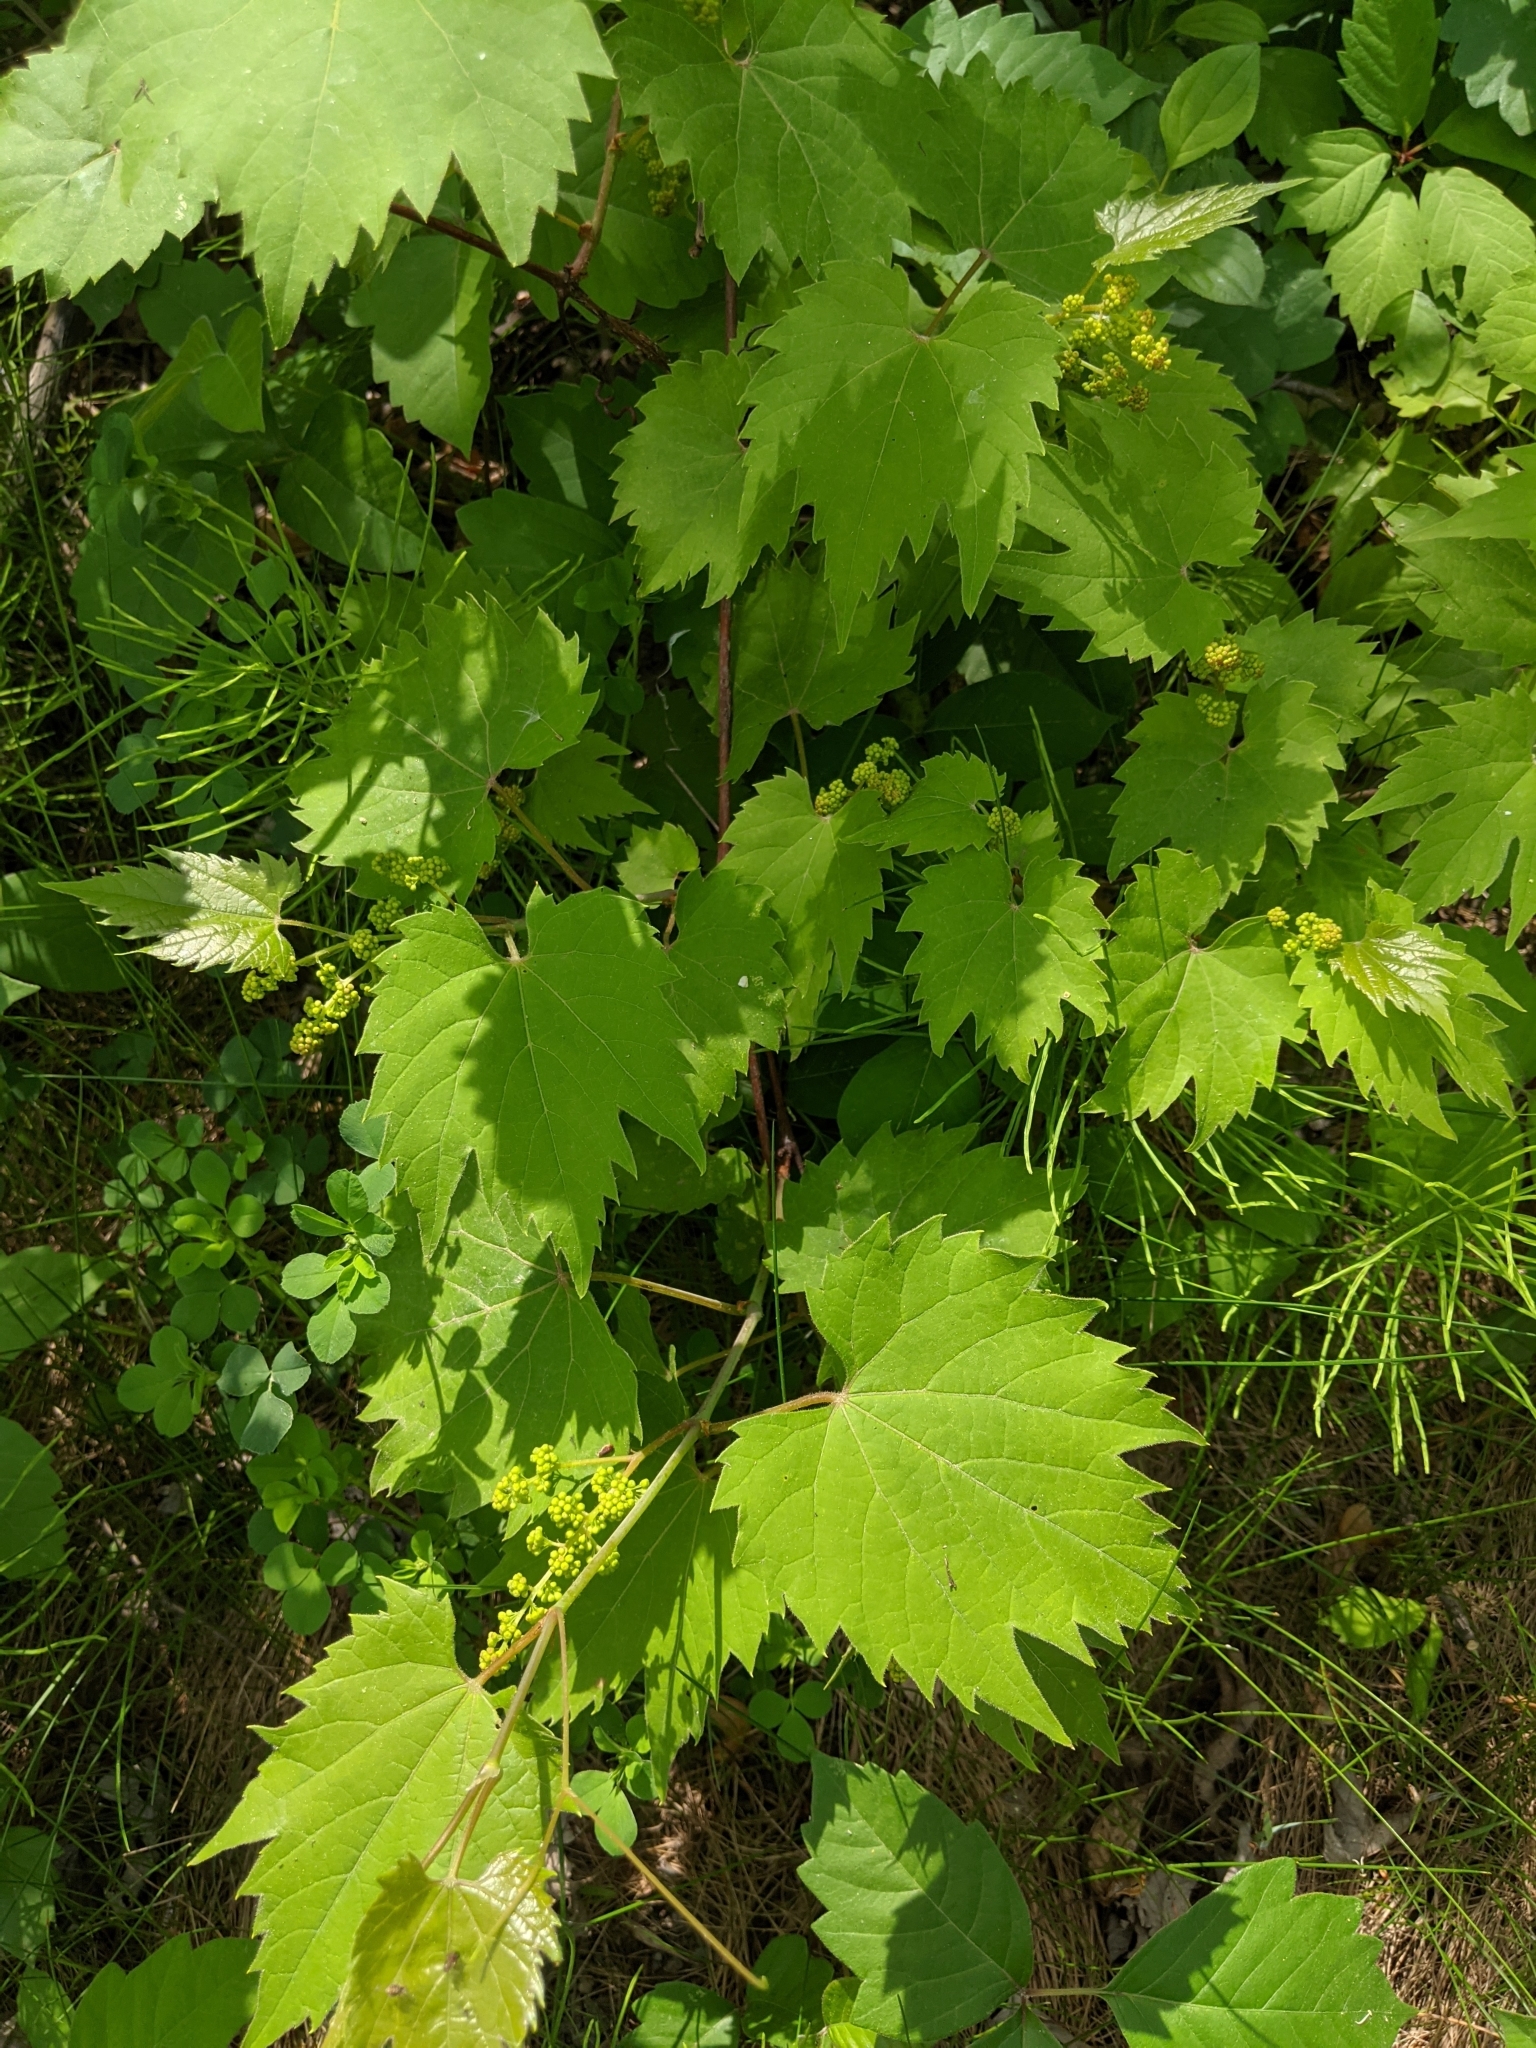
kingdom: Plantae
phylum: Tracheophyta
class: Magnoliopsida
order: Vitales
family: Vitaceae
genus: Vitis
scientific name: Vitis riparia
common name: Frost grape
